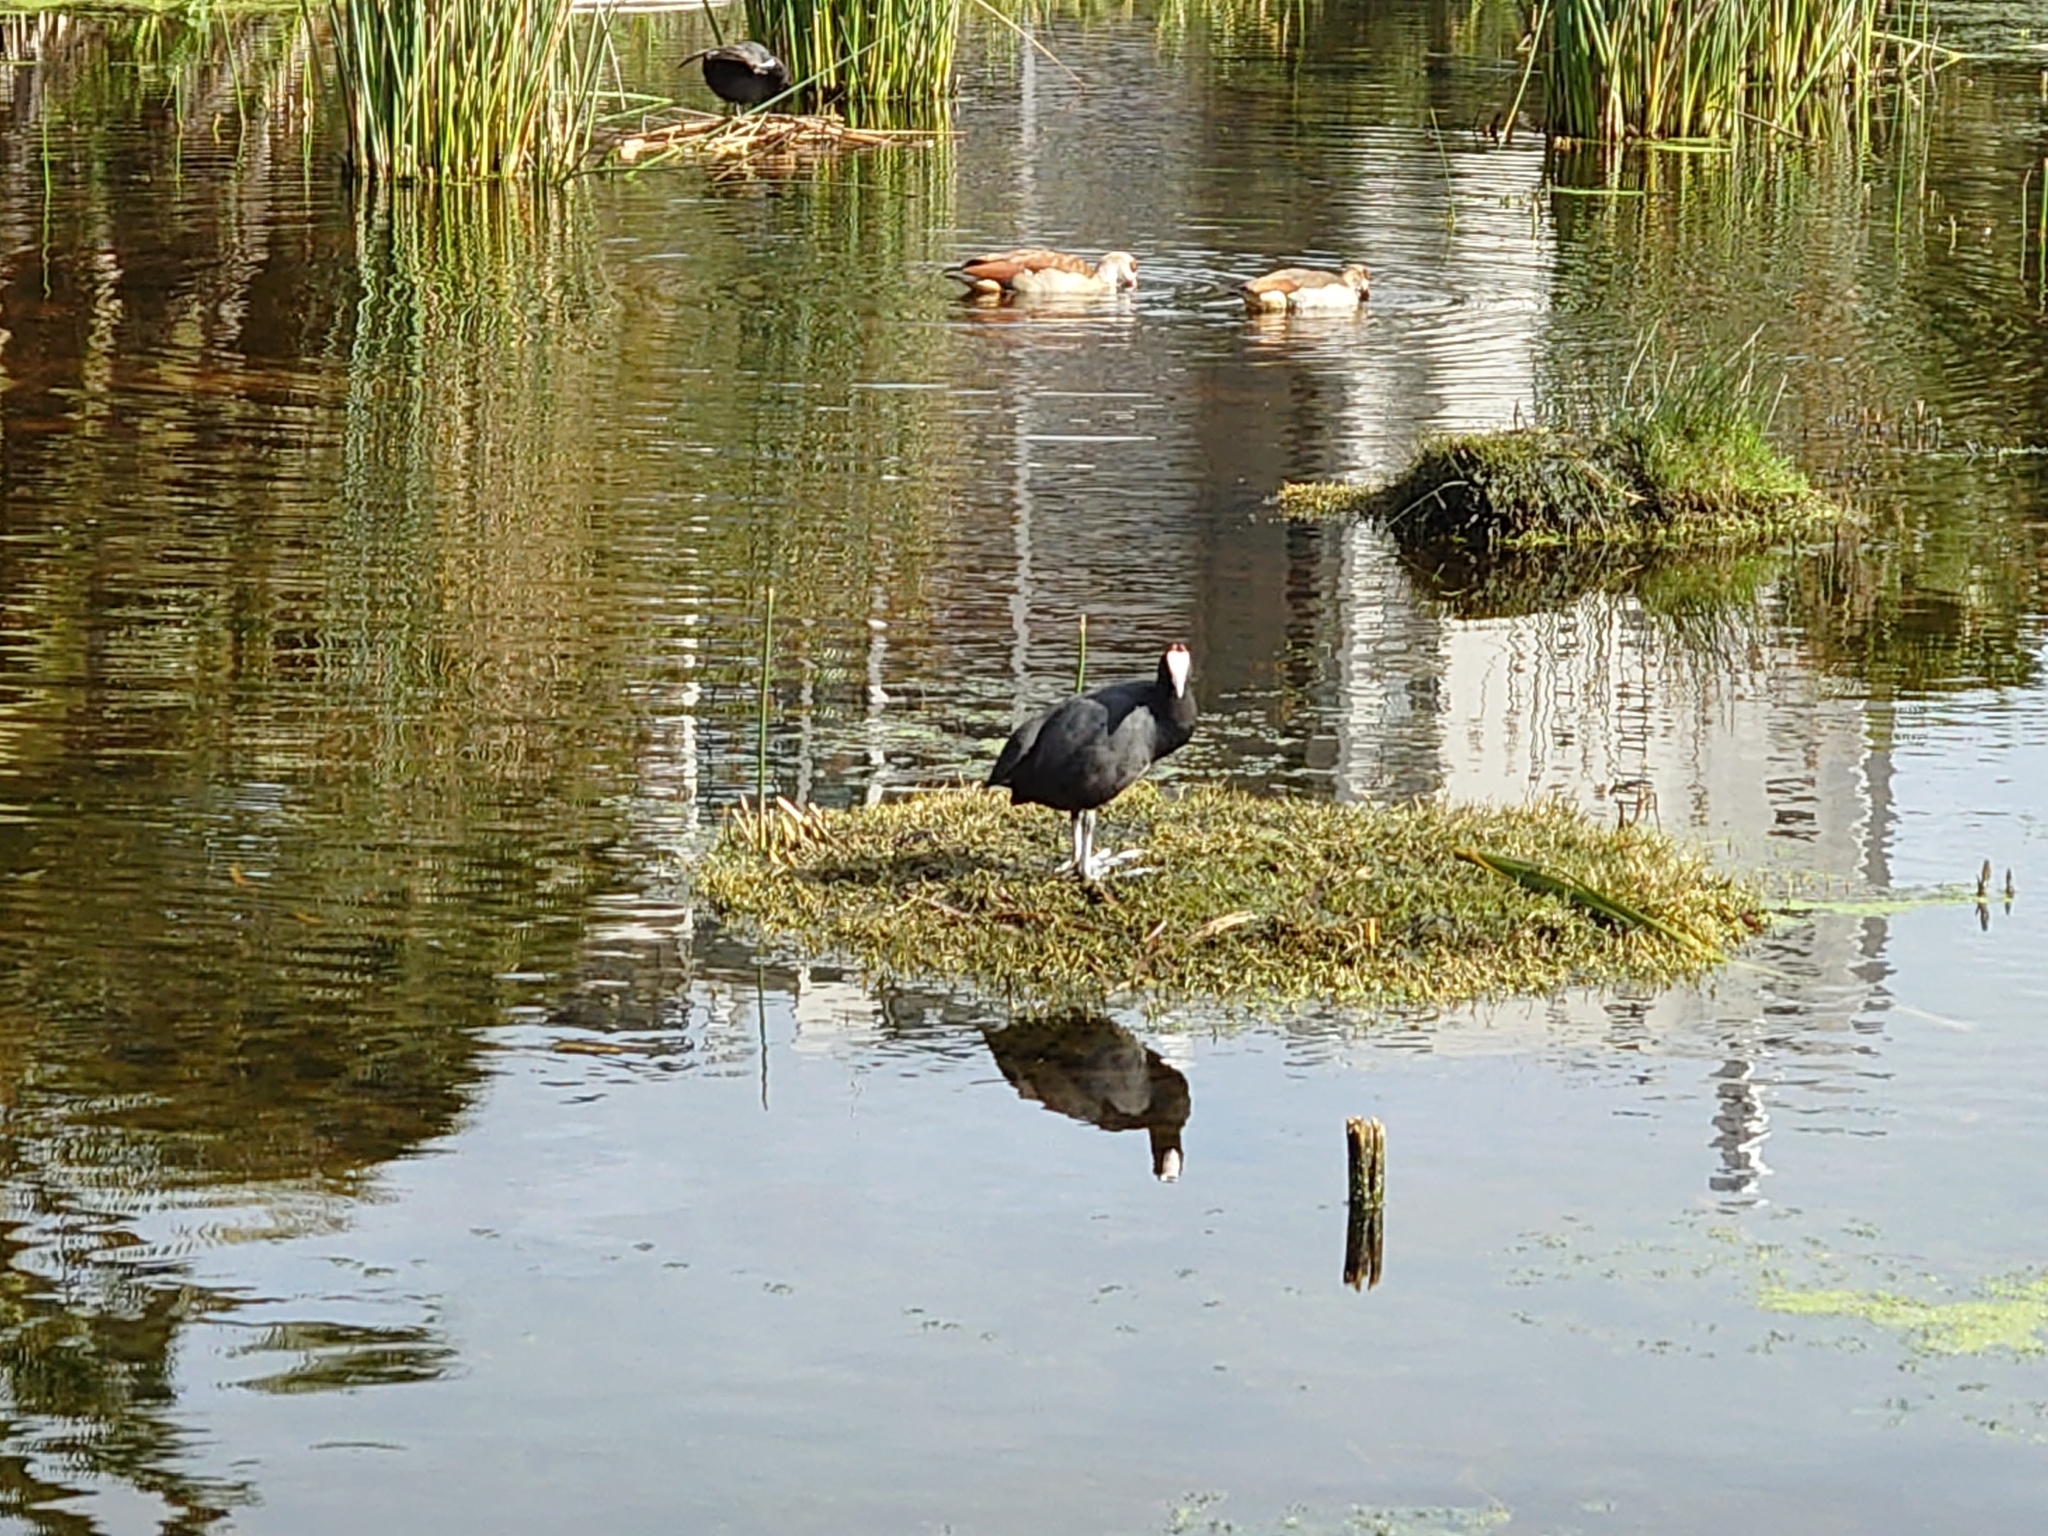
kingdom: Animalia
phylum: Chordata
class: Aves
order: Gruiformes
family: Rallidae
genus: Fulica
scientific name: Fulica cristata
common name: Red-knobbed coot
